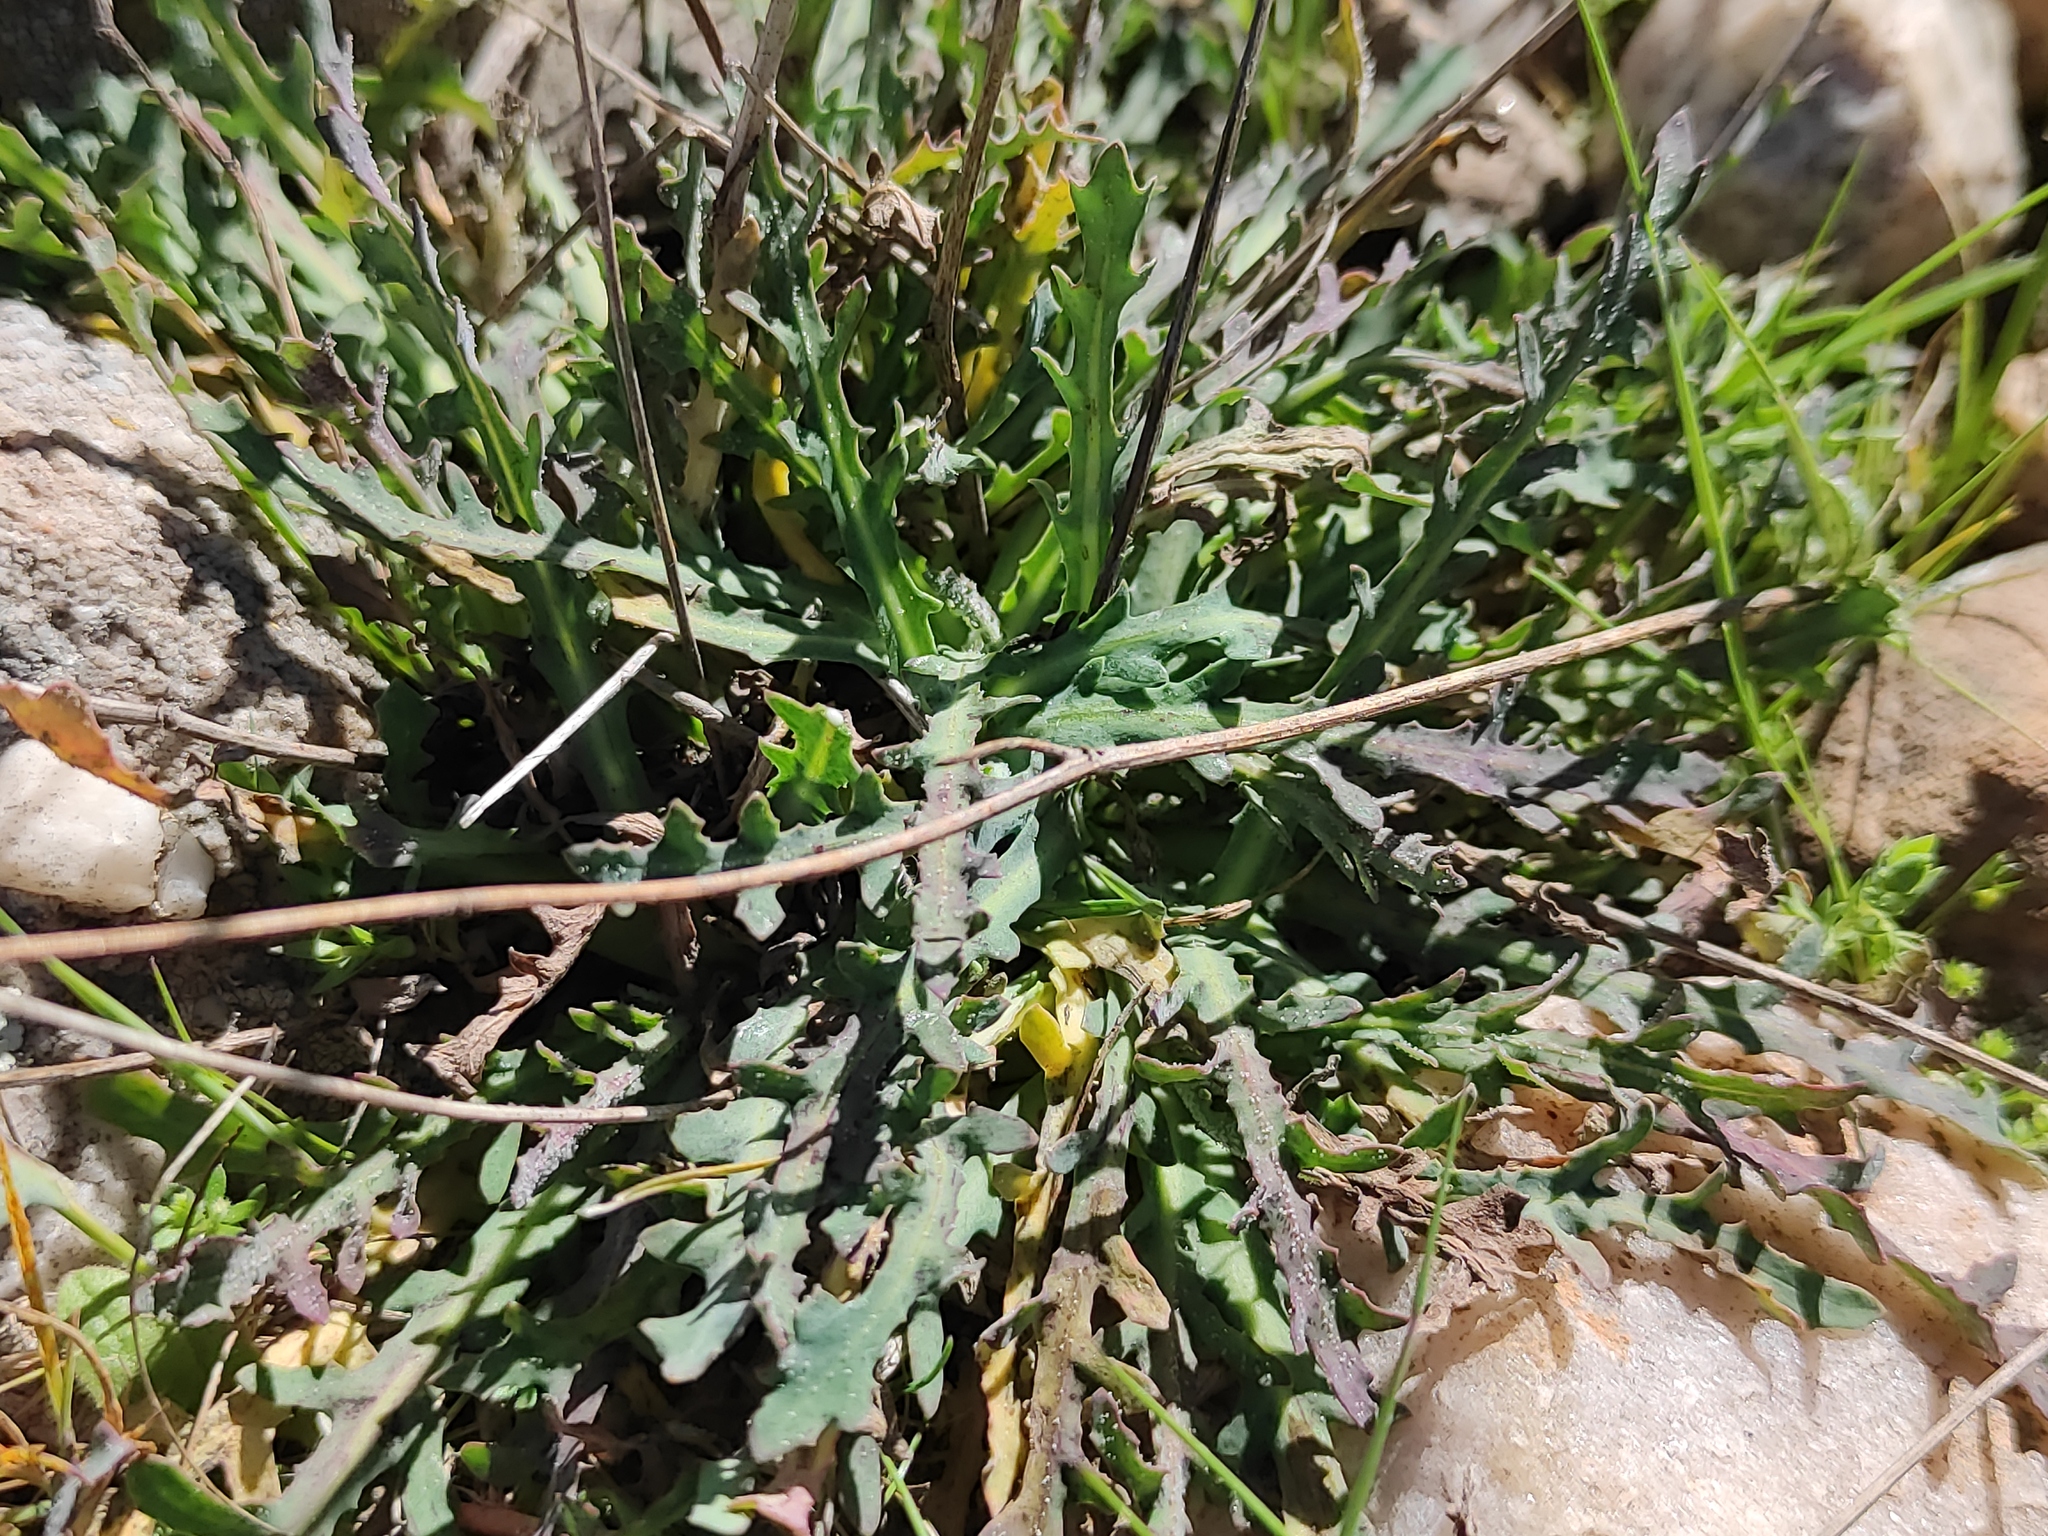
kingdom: Plantae
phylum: Tracheophyta
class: Magnoliopsida
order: Asterales
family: Asteraceae
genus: Reichardia
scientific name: Reichardia picroides
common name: Common brighteyes
